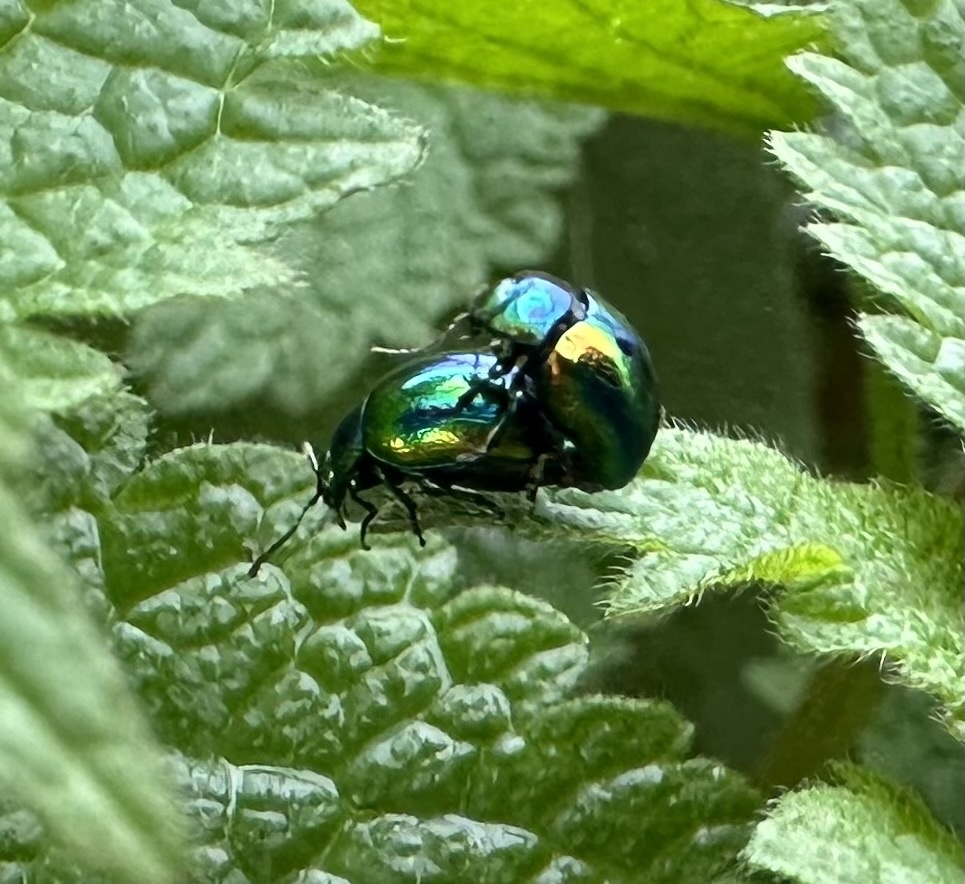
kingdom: Animalia
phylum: Arthropoda
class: Insecta
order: Coleoptera
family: Chrysomelidae
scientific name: Chrysomelidae
